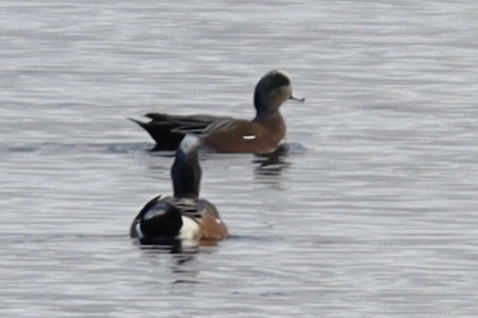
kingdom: Animalia
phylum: Chordata
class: Aves
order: Anseriformes
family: Anatidae
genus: Mareca
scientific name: Mareca americana
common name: American wigeon
